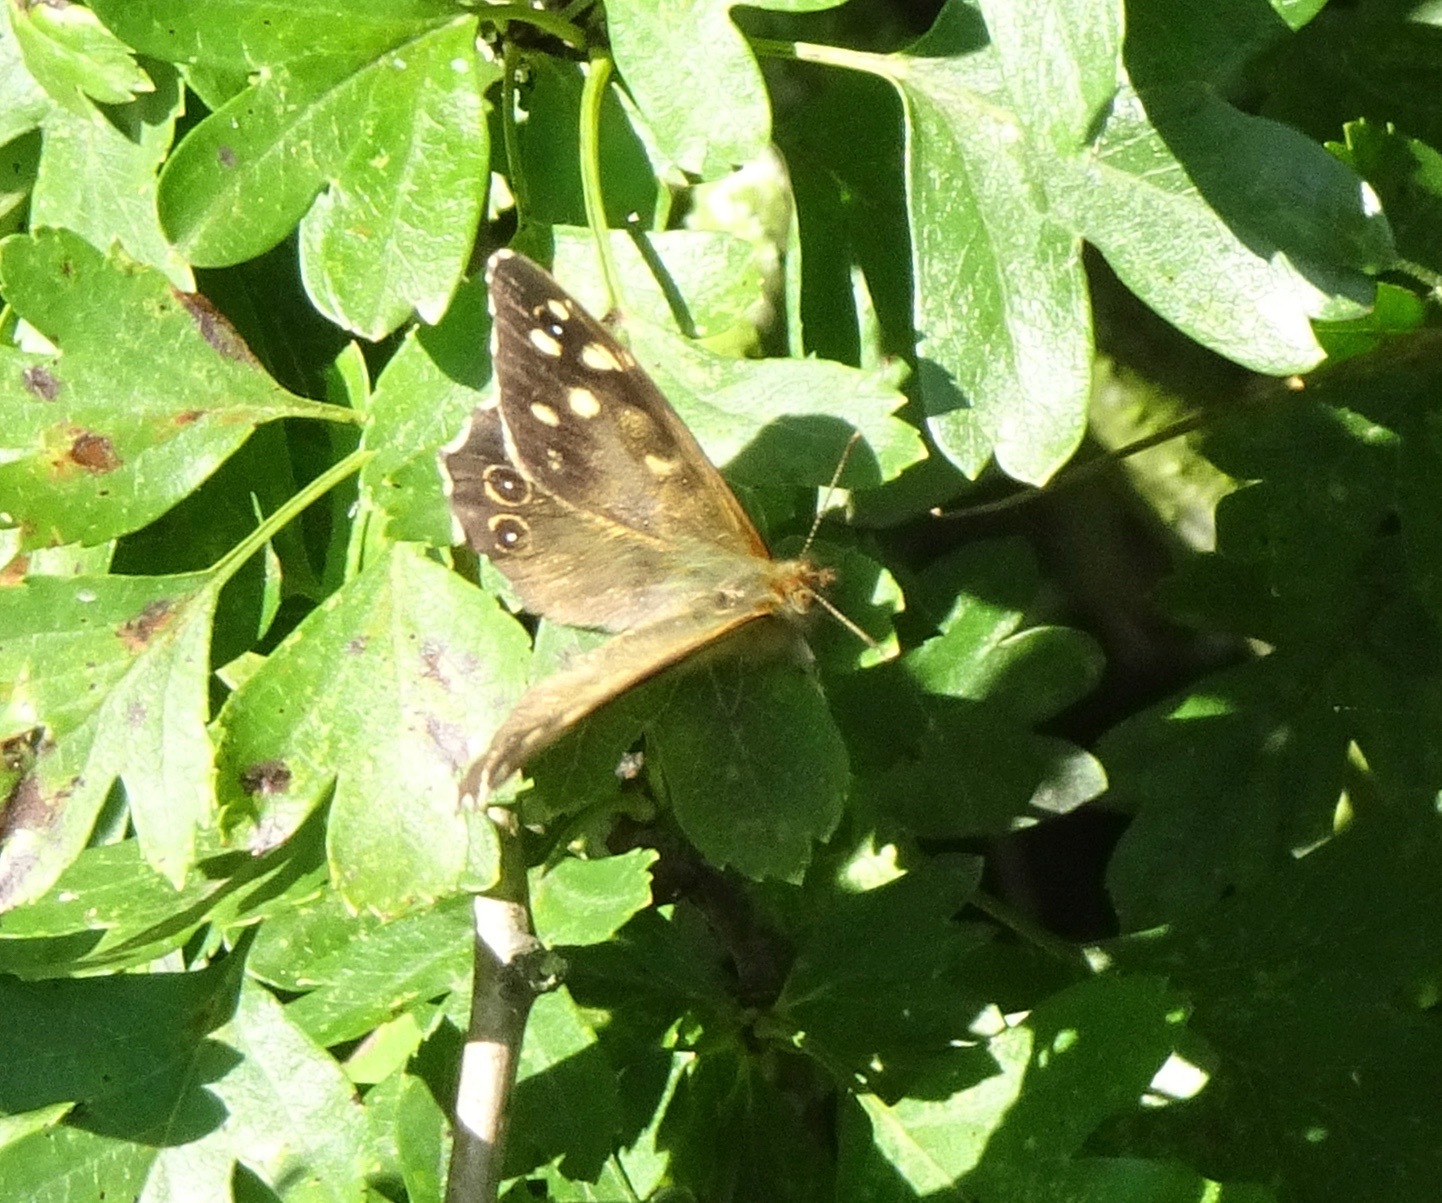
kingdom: Animalia
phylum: Arthropoda
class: Insecta
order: Lepidoptera
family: Nymphalidae
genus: Pararge
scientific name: Pararge aegeria
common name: Speckled wood
